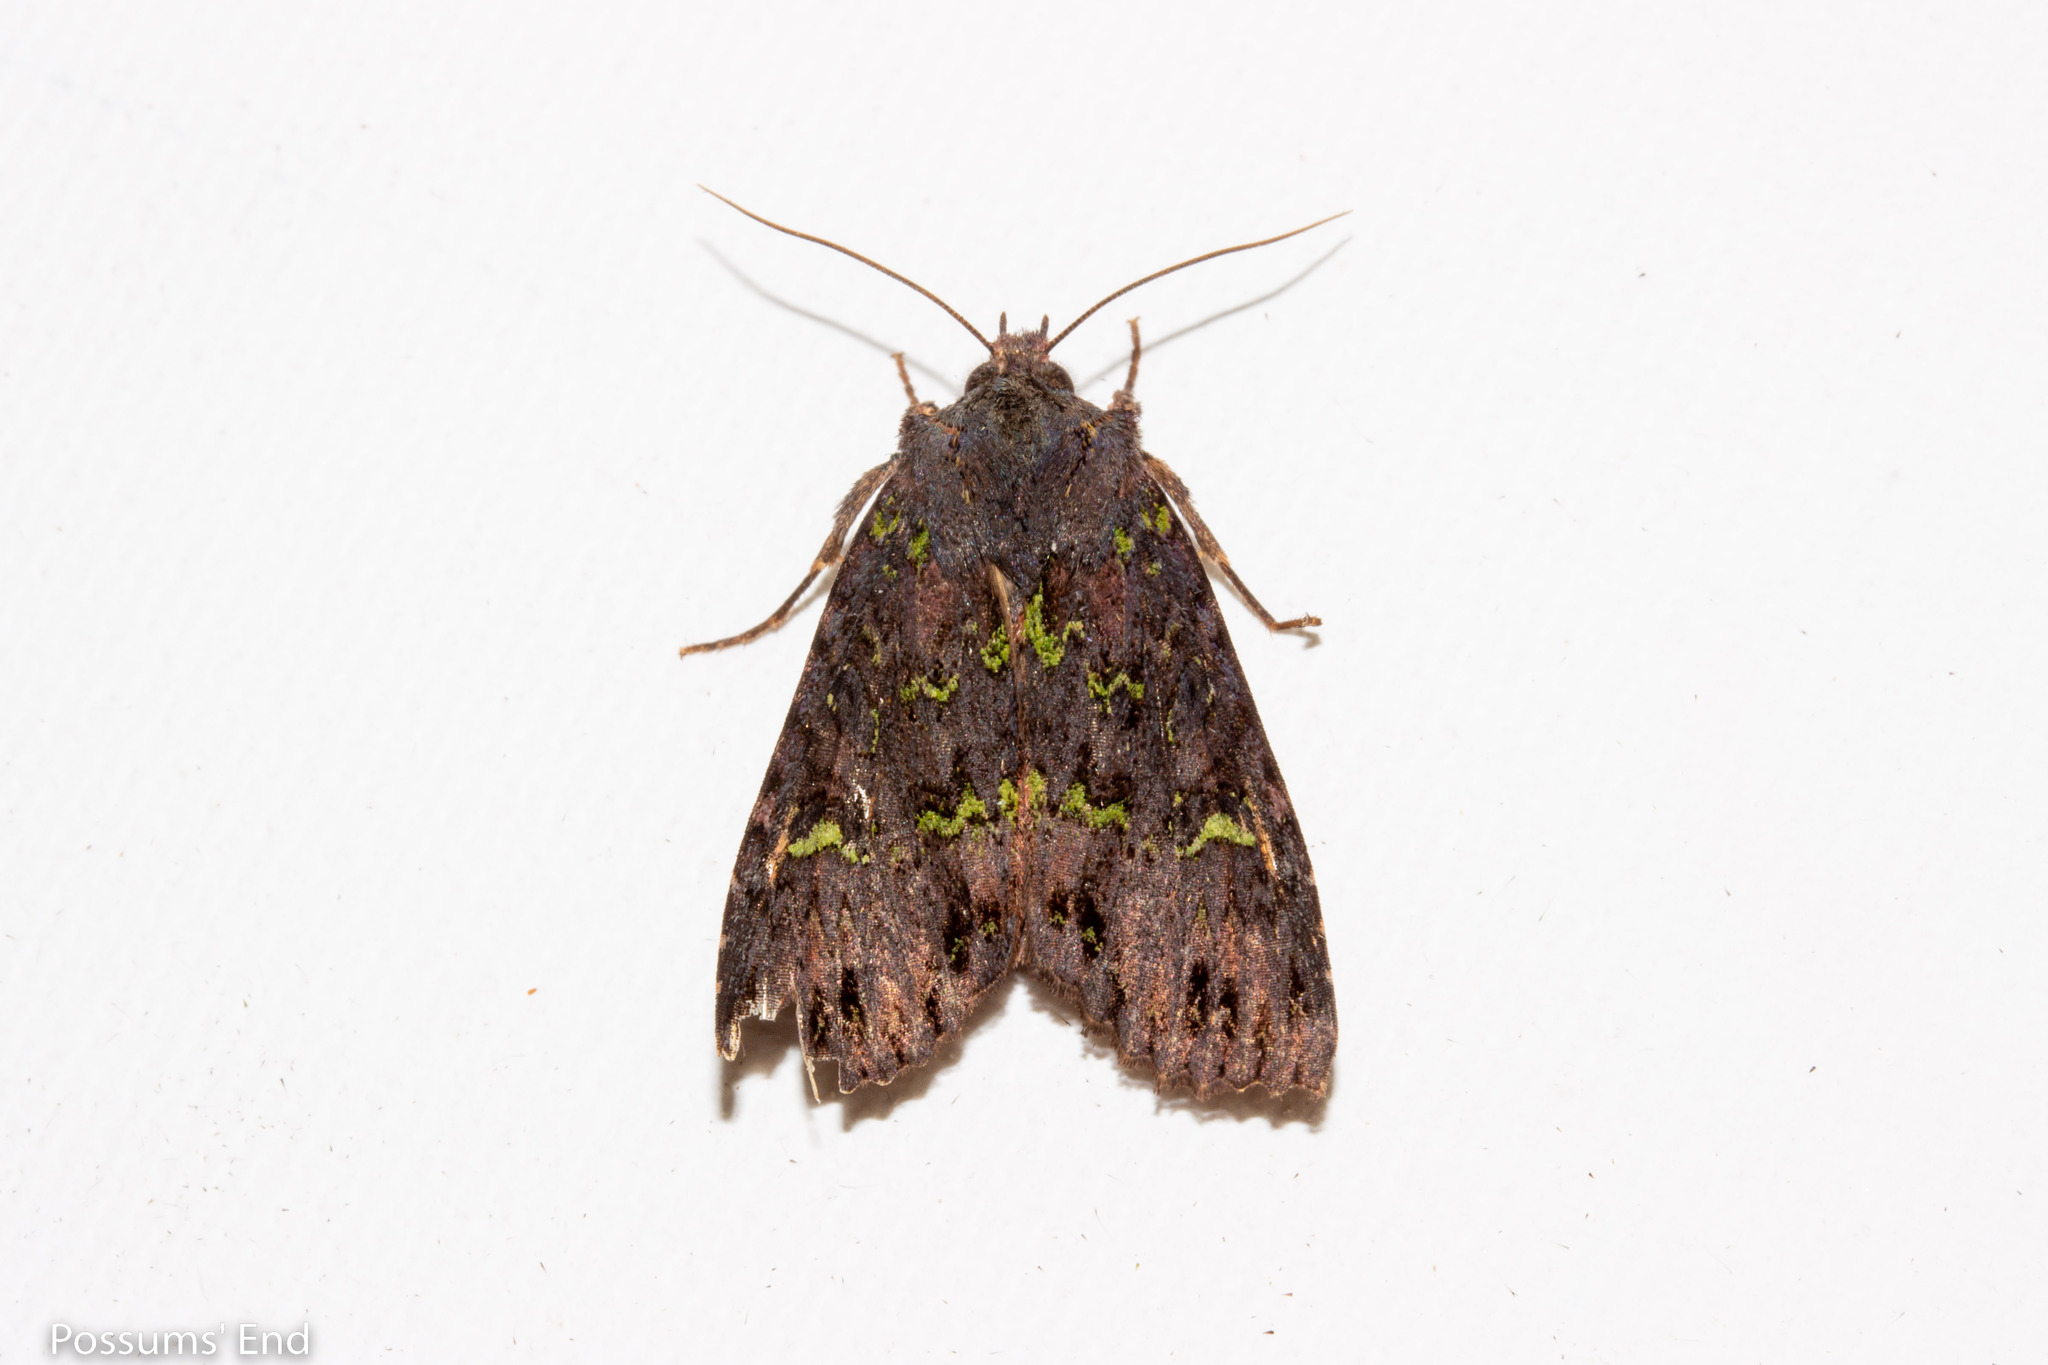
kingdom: Animalia
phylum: Arthropoda
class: Insecta
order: Lepidoptera
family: Noctuidae
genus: Meterana
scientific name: Meterana merope
